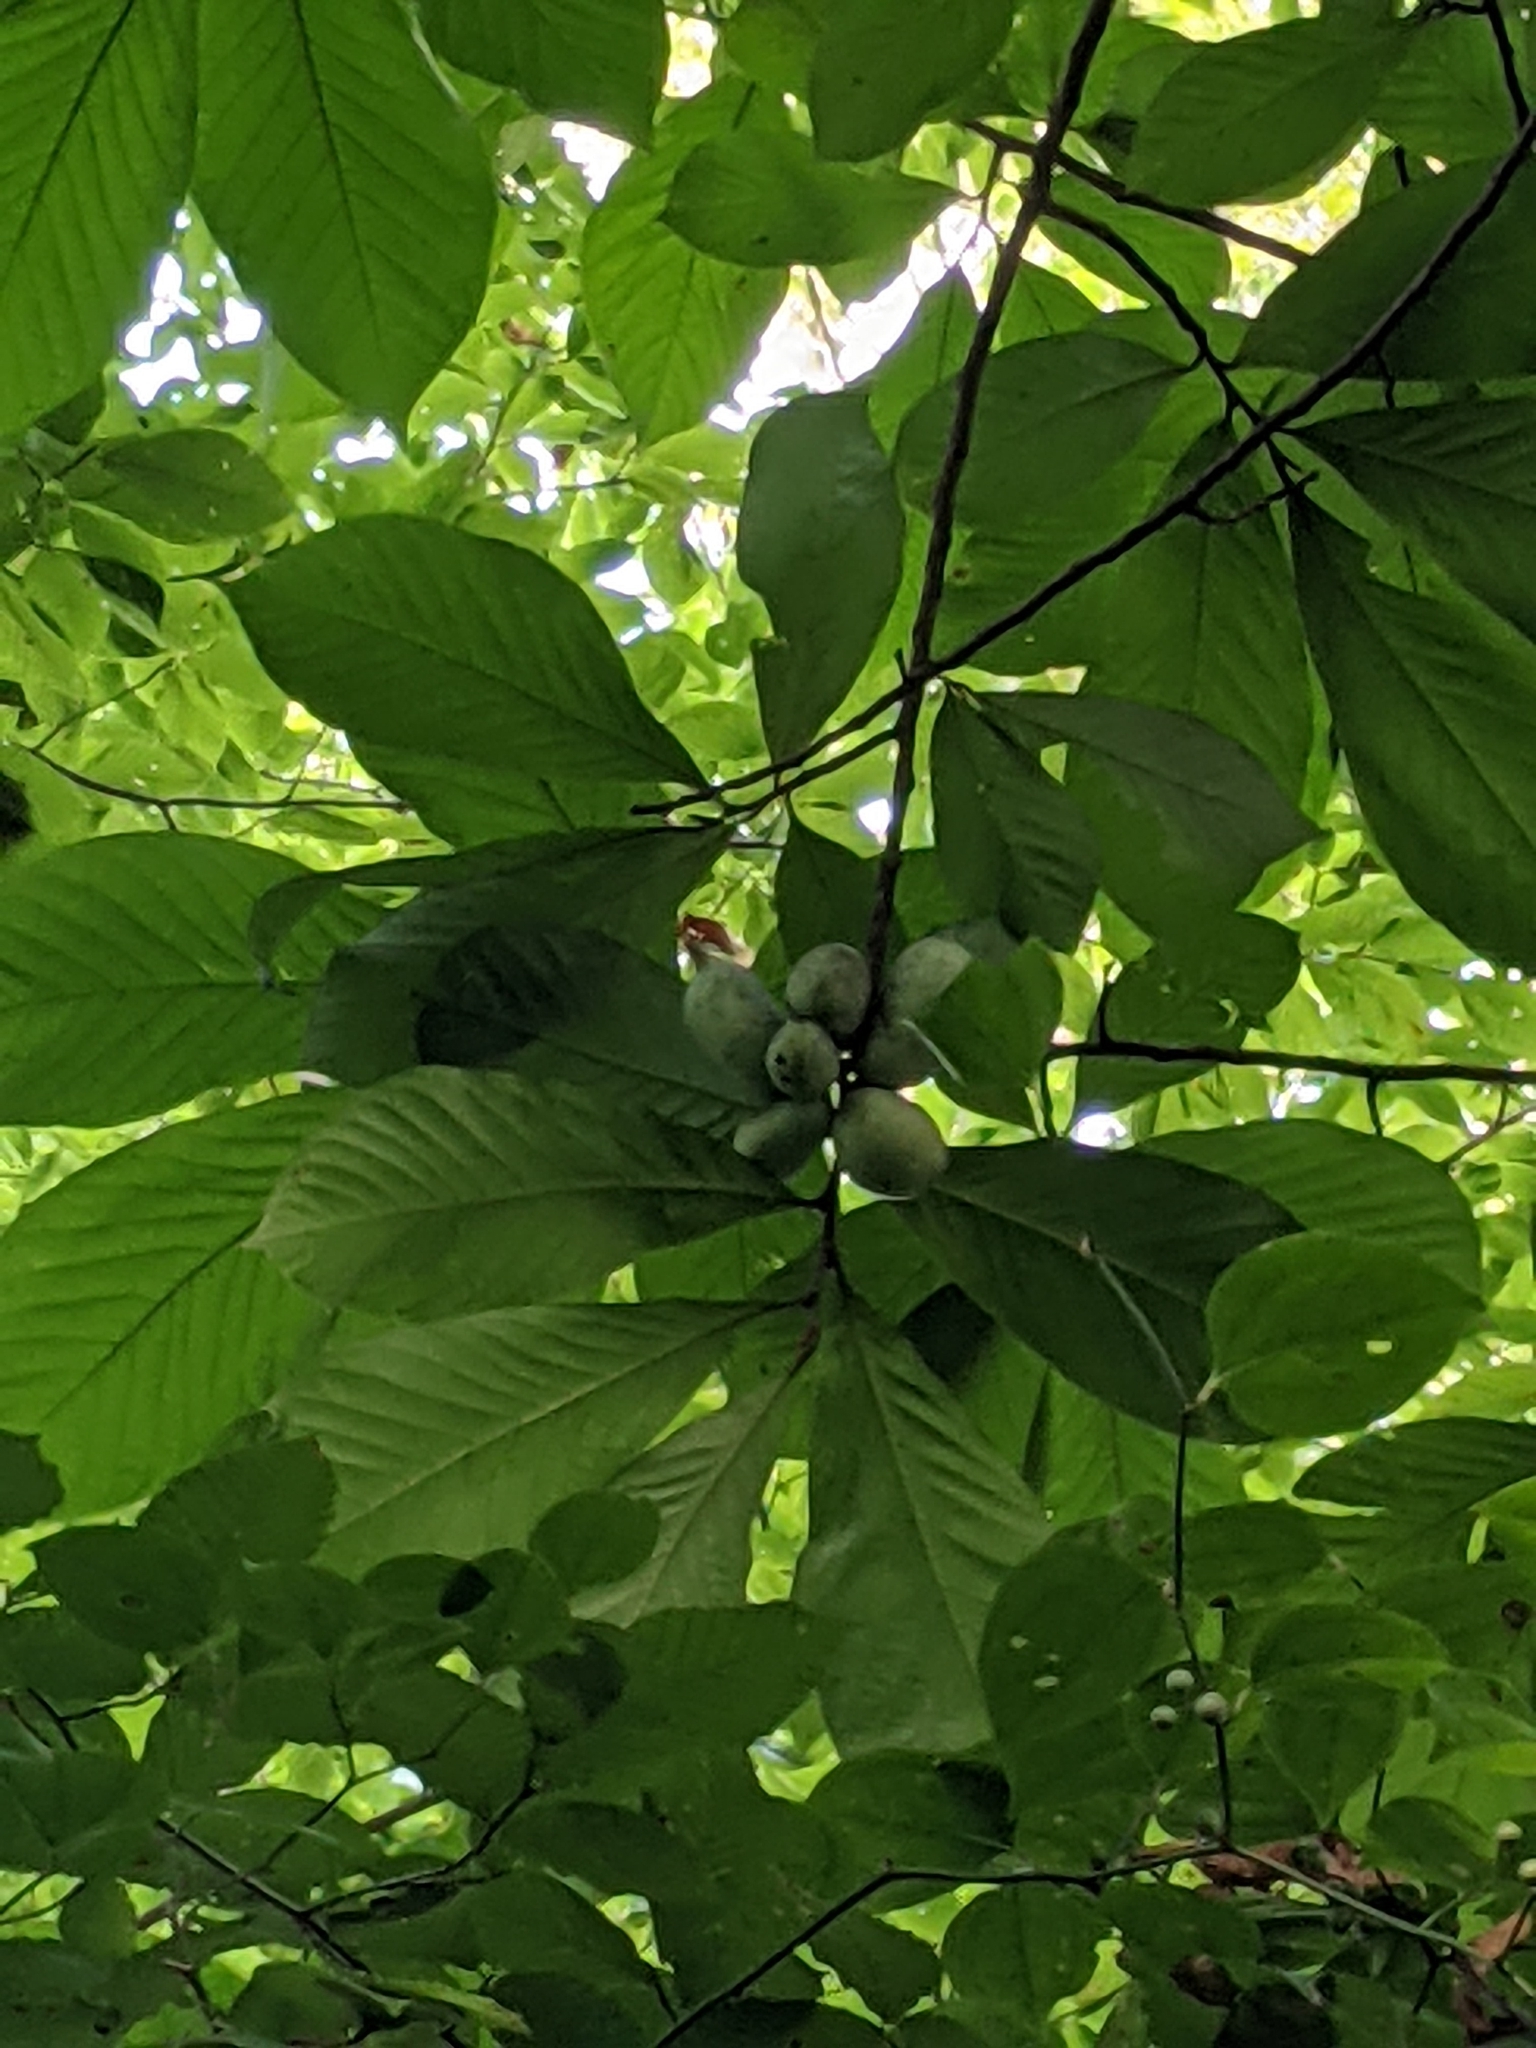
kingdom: Plantae
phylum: Tracheophyta
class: Magnoliopsida
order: Magnoliales
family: Annonaceae
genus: Asimina
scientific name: Asimina triloba
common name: Dog-banana
